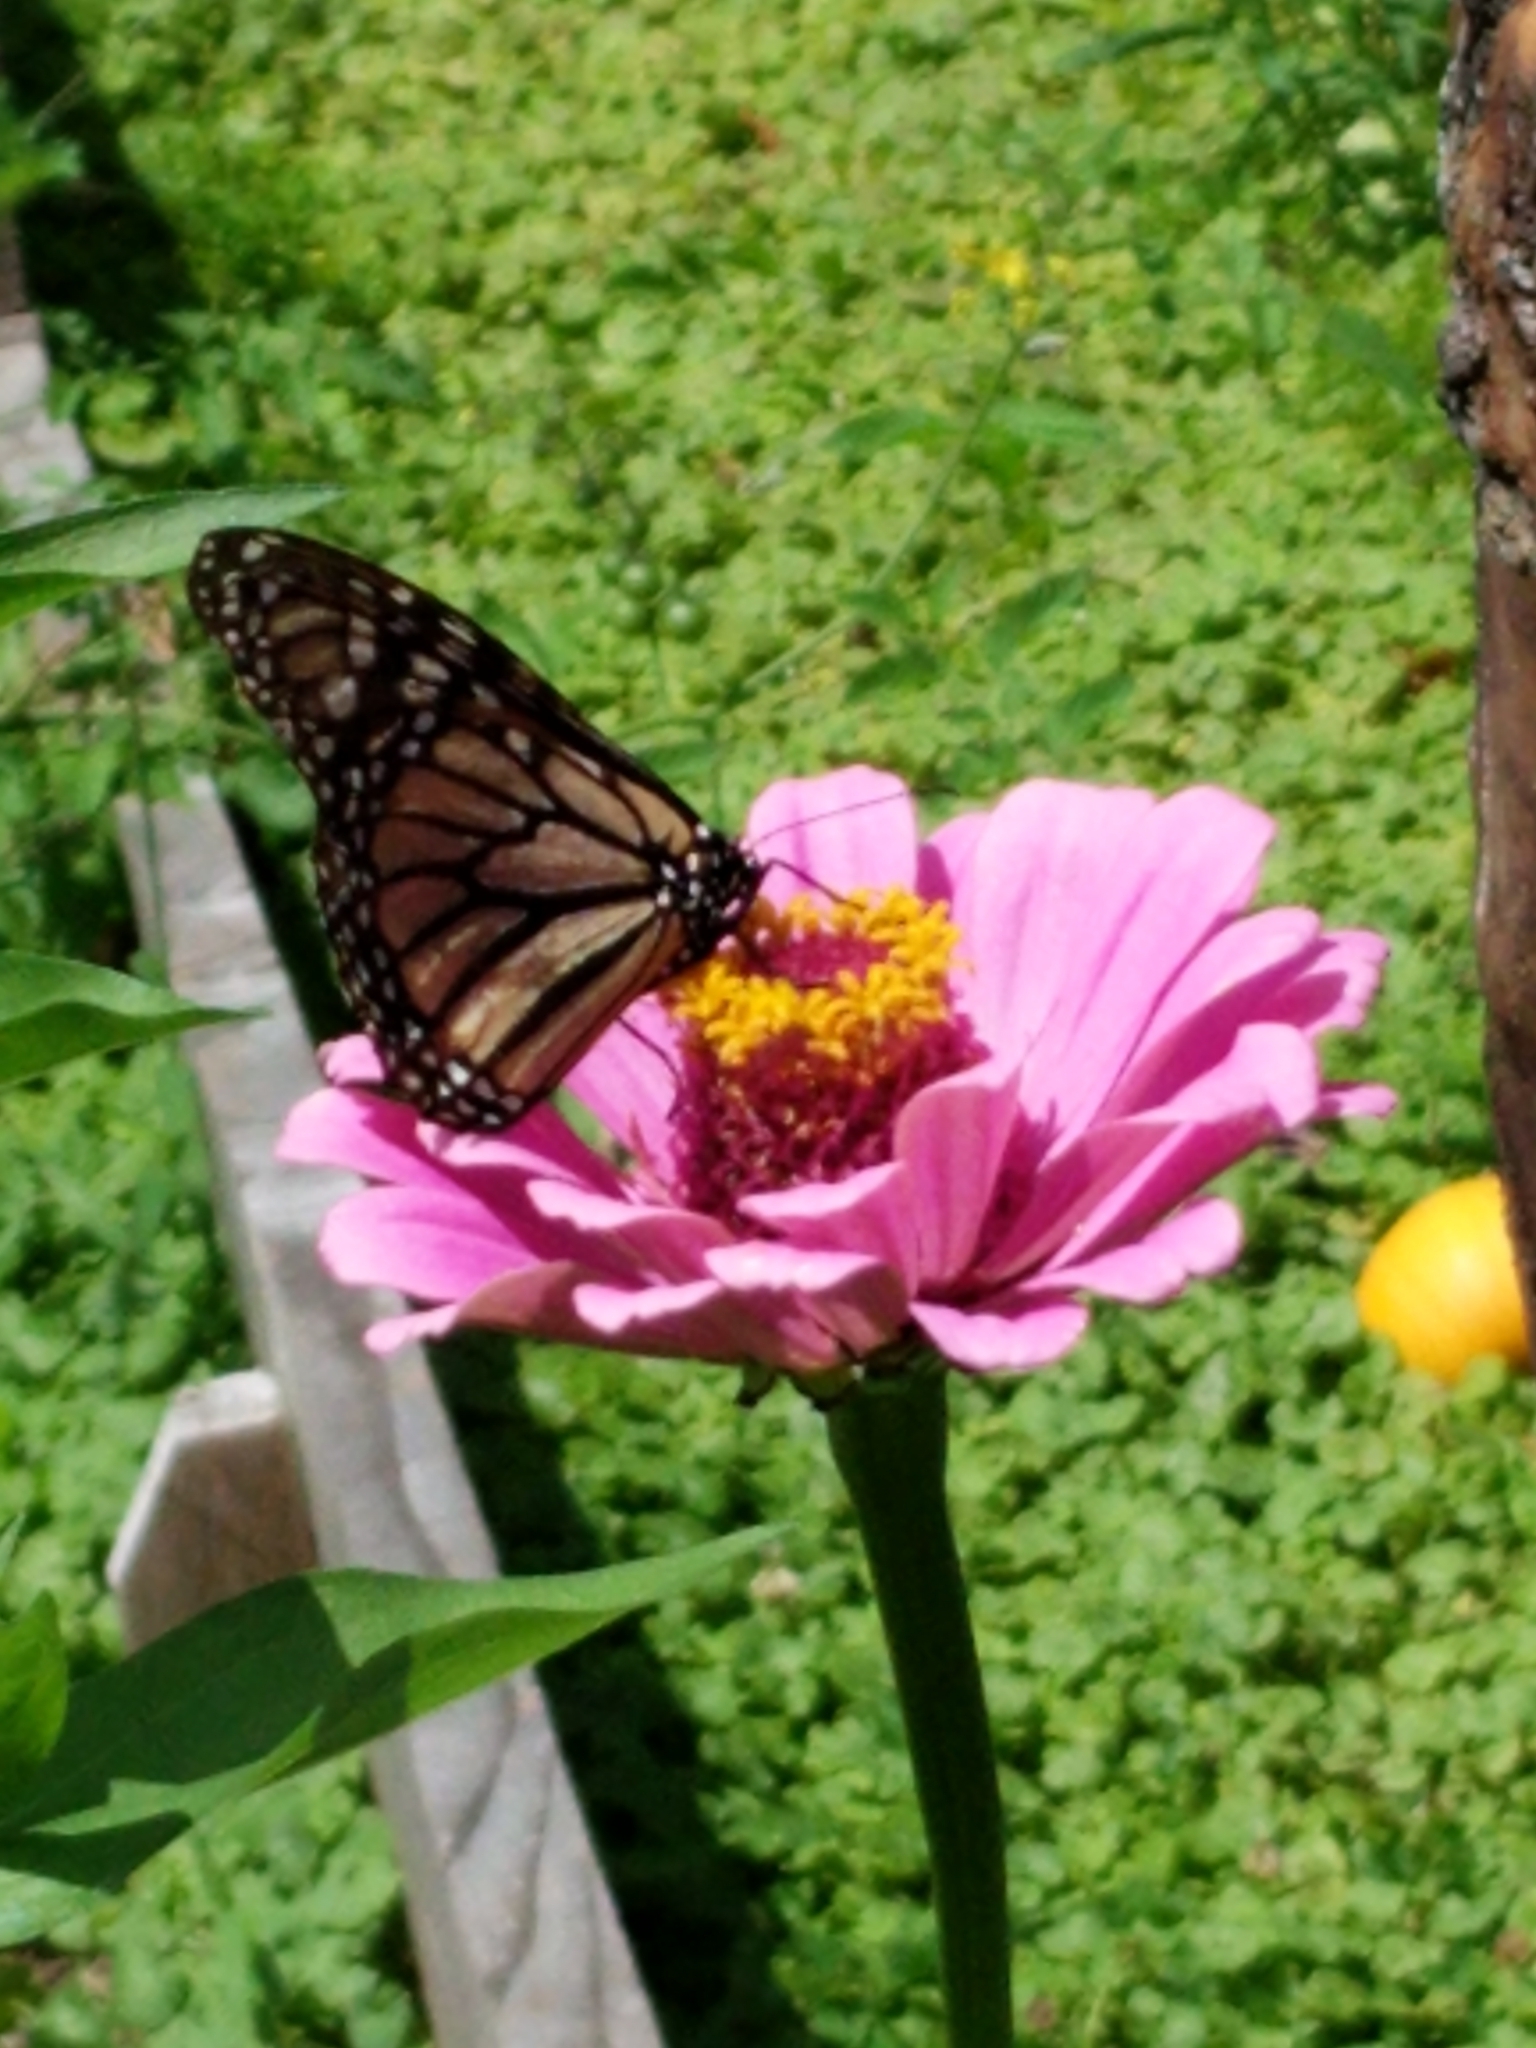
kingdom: Animalia
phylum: Arthropoda
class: Insecta
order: Lepidoptera
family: Nymphalidae
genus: Danaus
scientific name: Danaus plexippus
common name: Monarch
